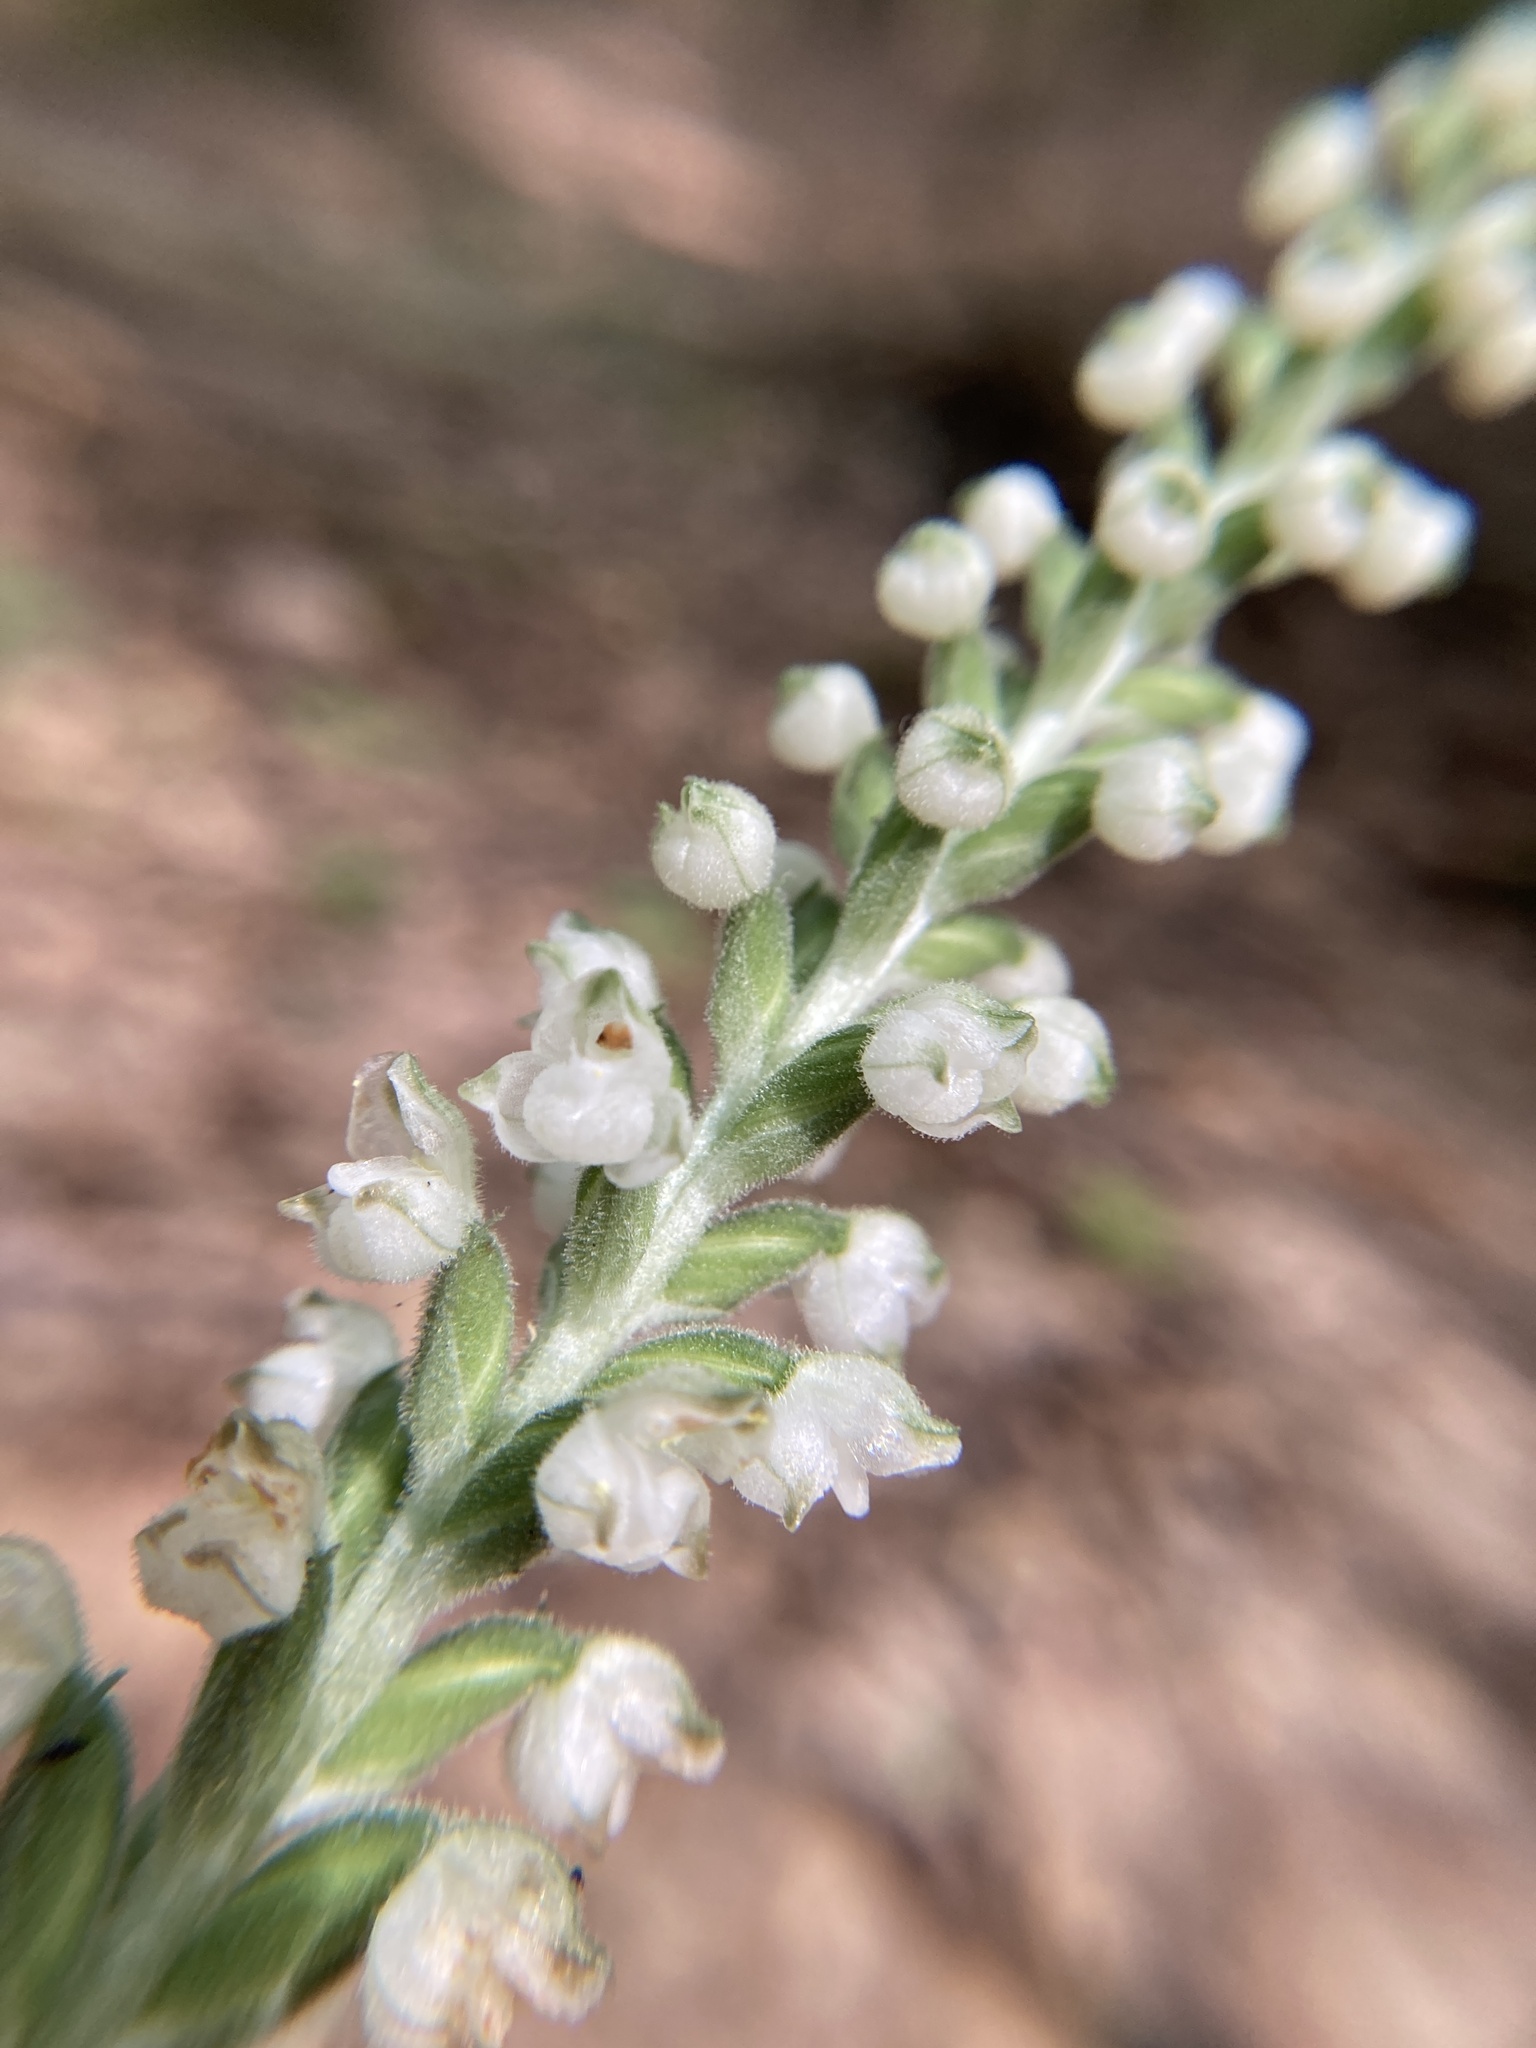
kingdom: Plantae
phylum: Tracheophyta
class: Liliopsida
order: Asparagales
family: Orchidaceae
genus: Goodyera
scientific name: Goodyera pubescens
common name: Downy rattlesnake-plantain
